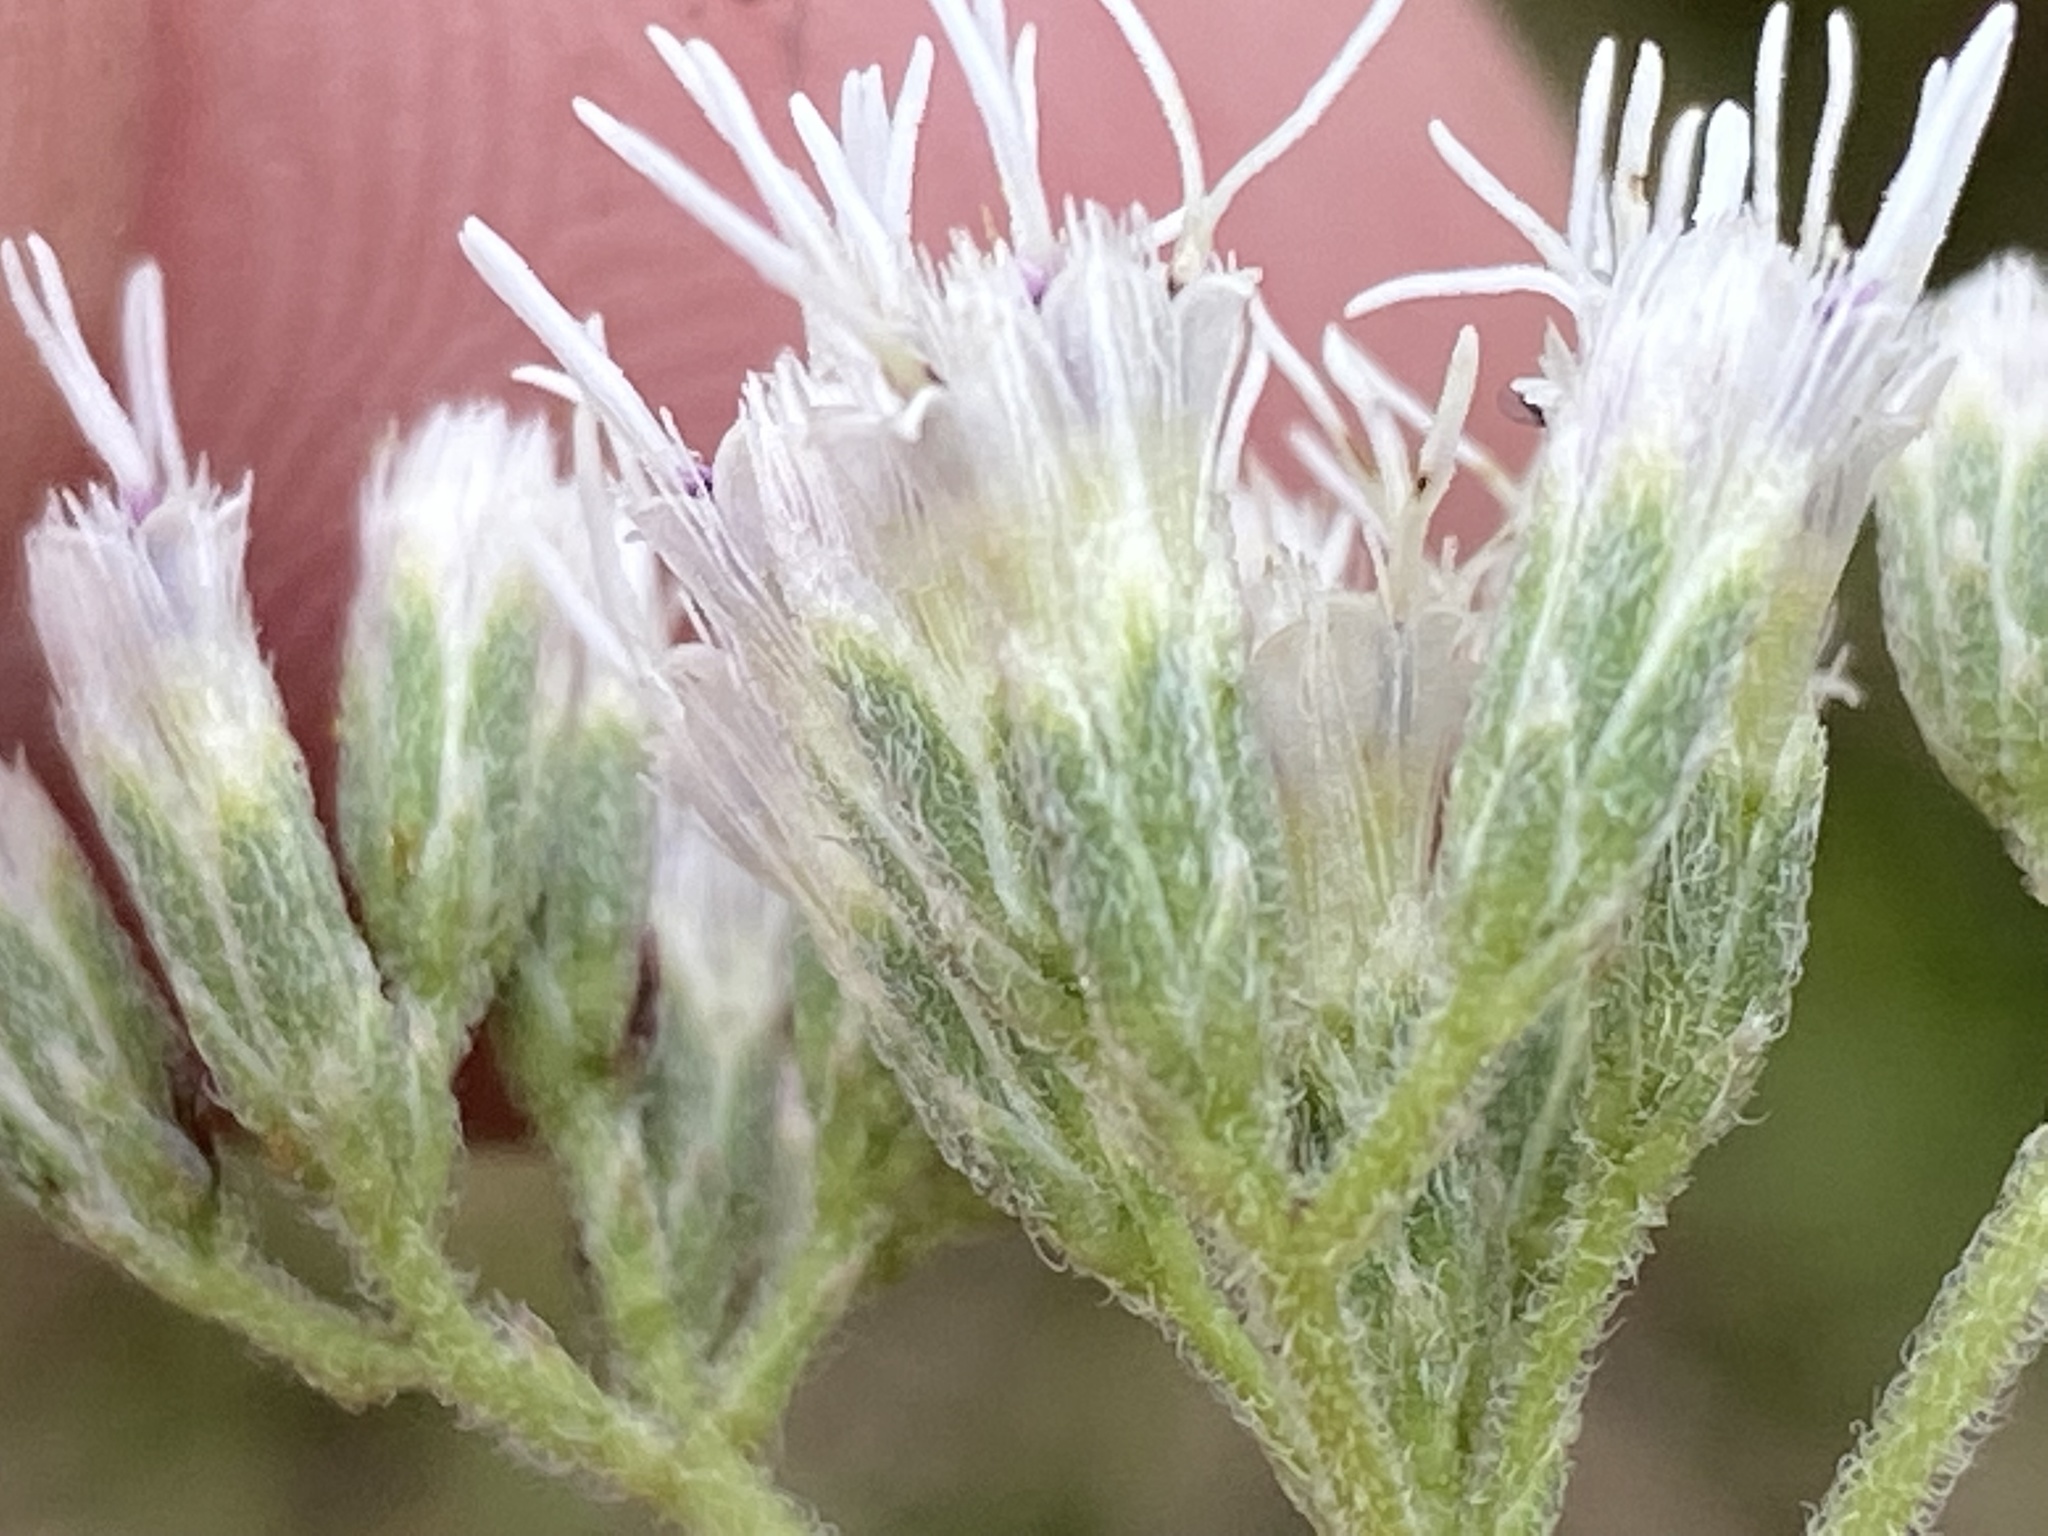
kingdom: Plantae
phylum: Tracheophyta
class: Magnoliopsida
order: Asterales
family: Asteraceae
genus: Eupatorium
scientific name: Eupatorium pilosum
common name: Rough boneset
